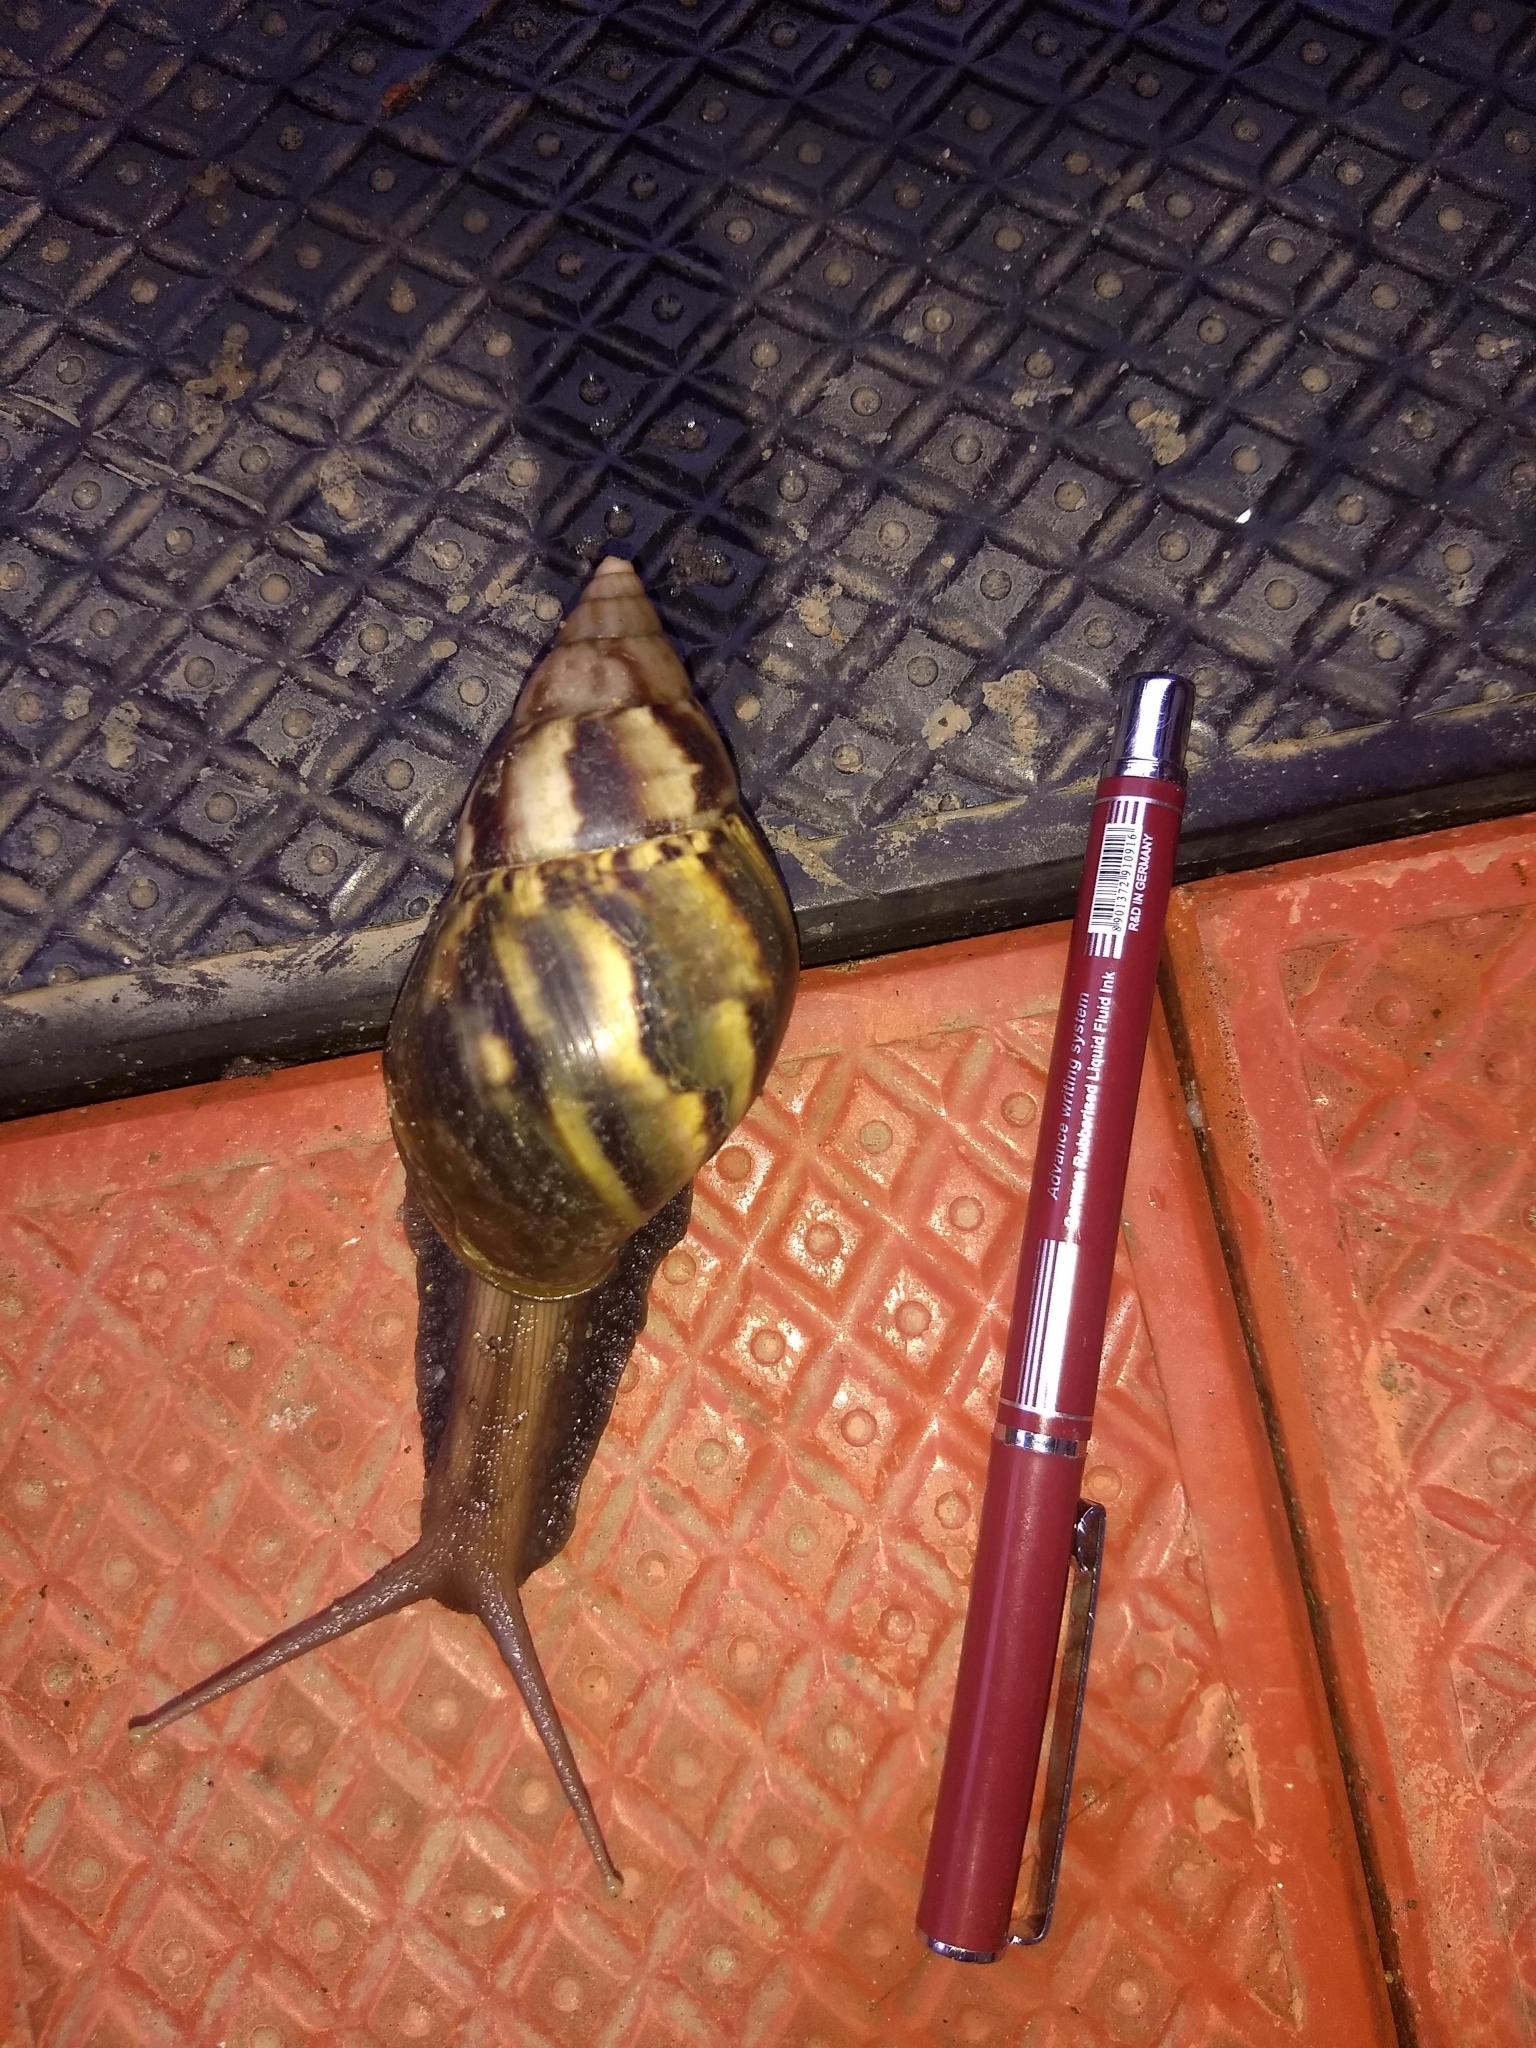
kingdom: Animalia
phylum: Mollusca
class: Gastropoda
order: Stylommatophora
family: Achatinidae
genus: Lissachatina
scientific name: Lissachatina fulica
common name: Giant african snail
